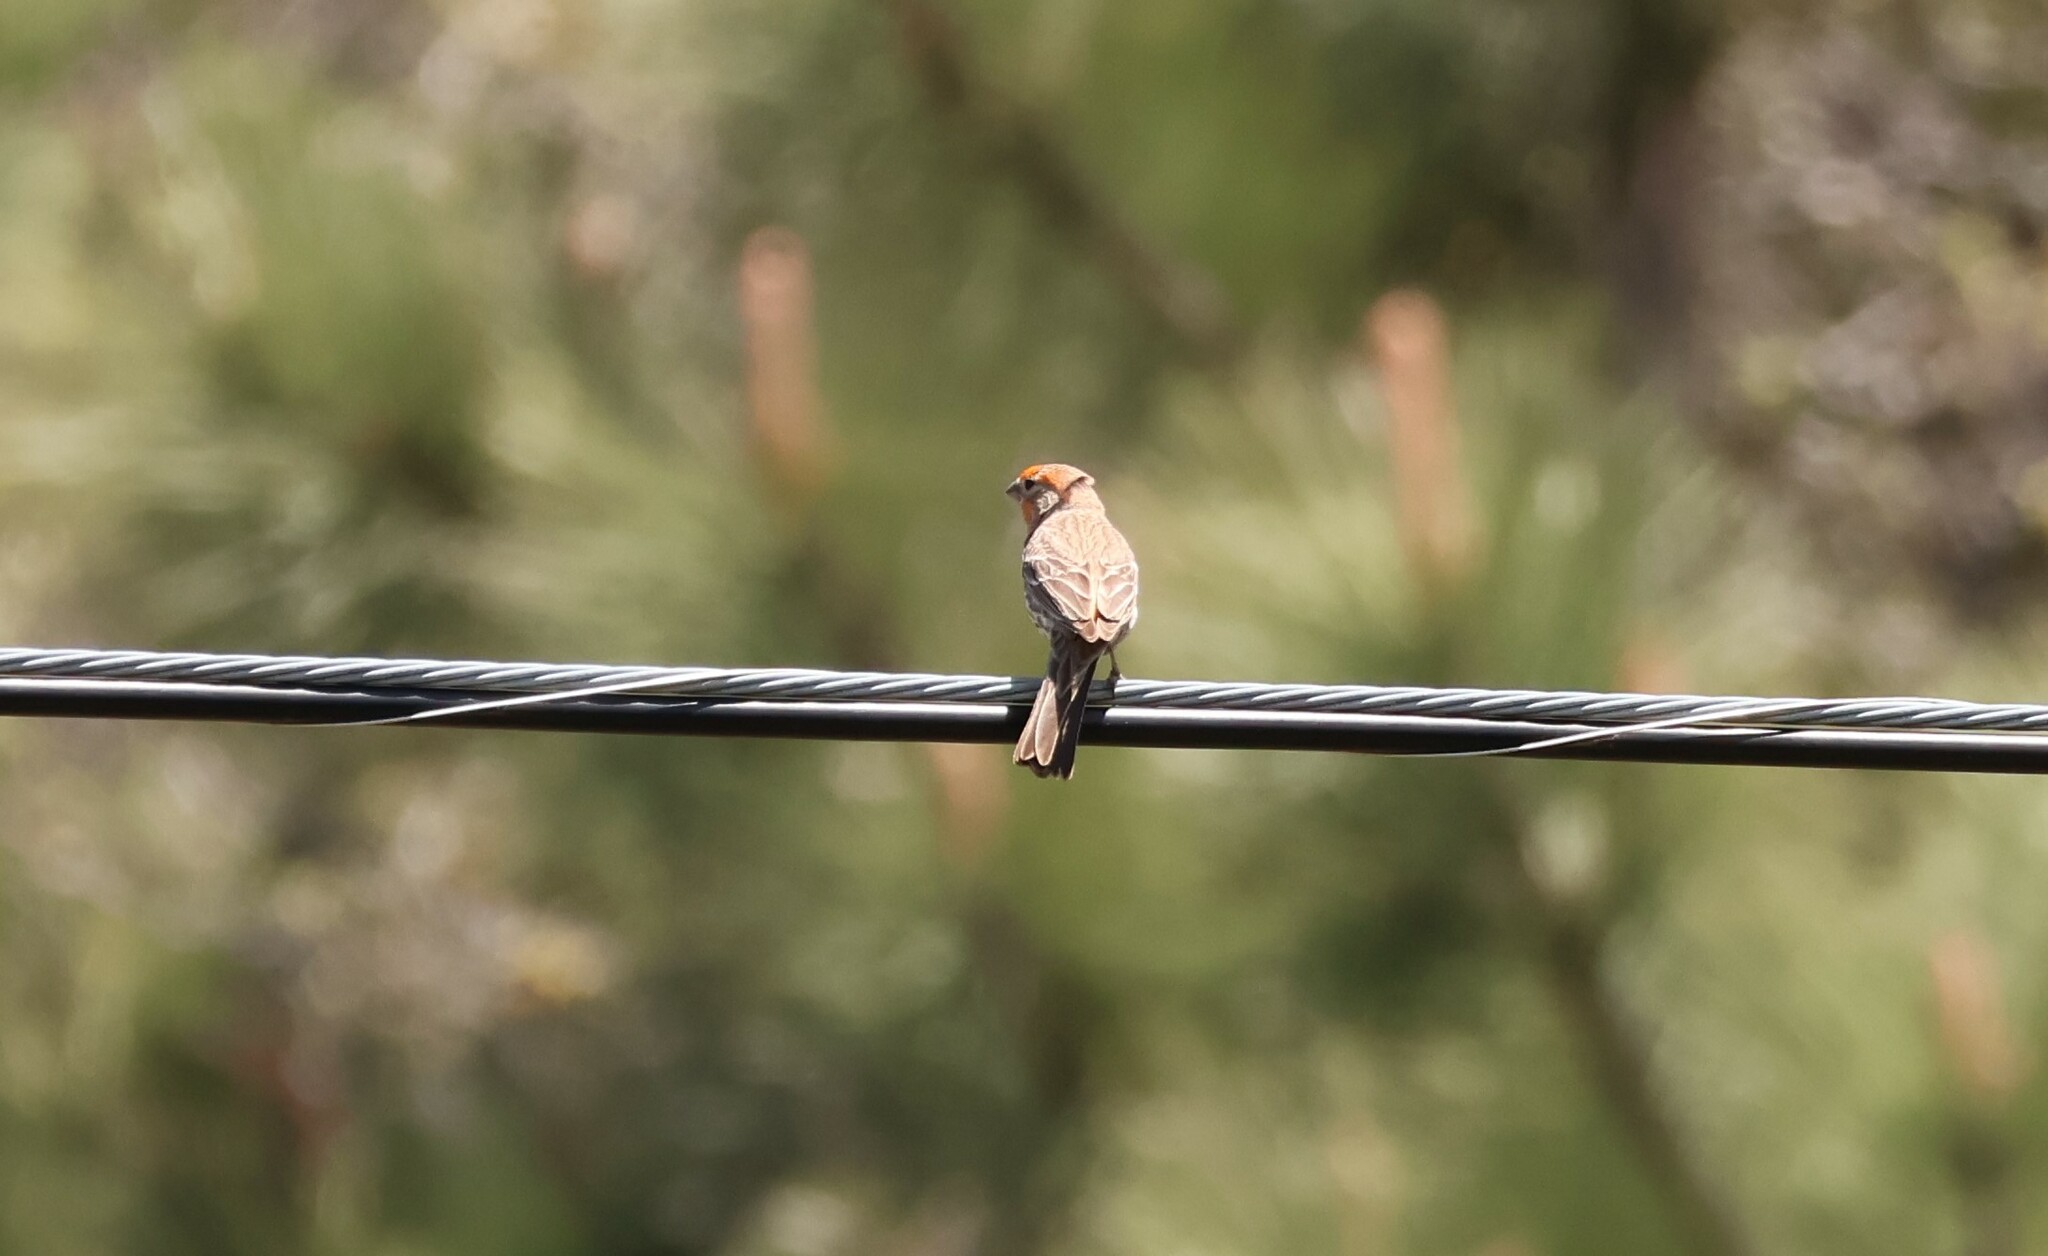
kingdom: Animalia
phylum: Chordata
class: Aves
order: Passeriformes
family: Fringillidae
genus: Haemorhous
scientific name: Haemorhous mexicanus
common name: House finch
